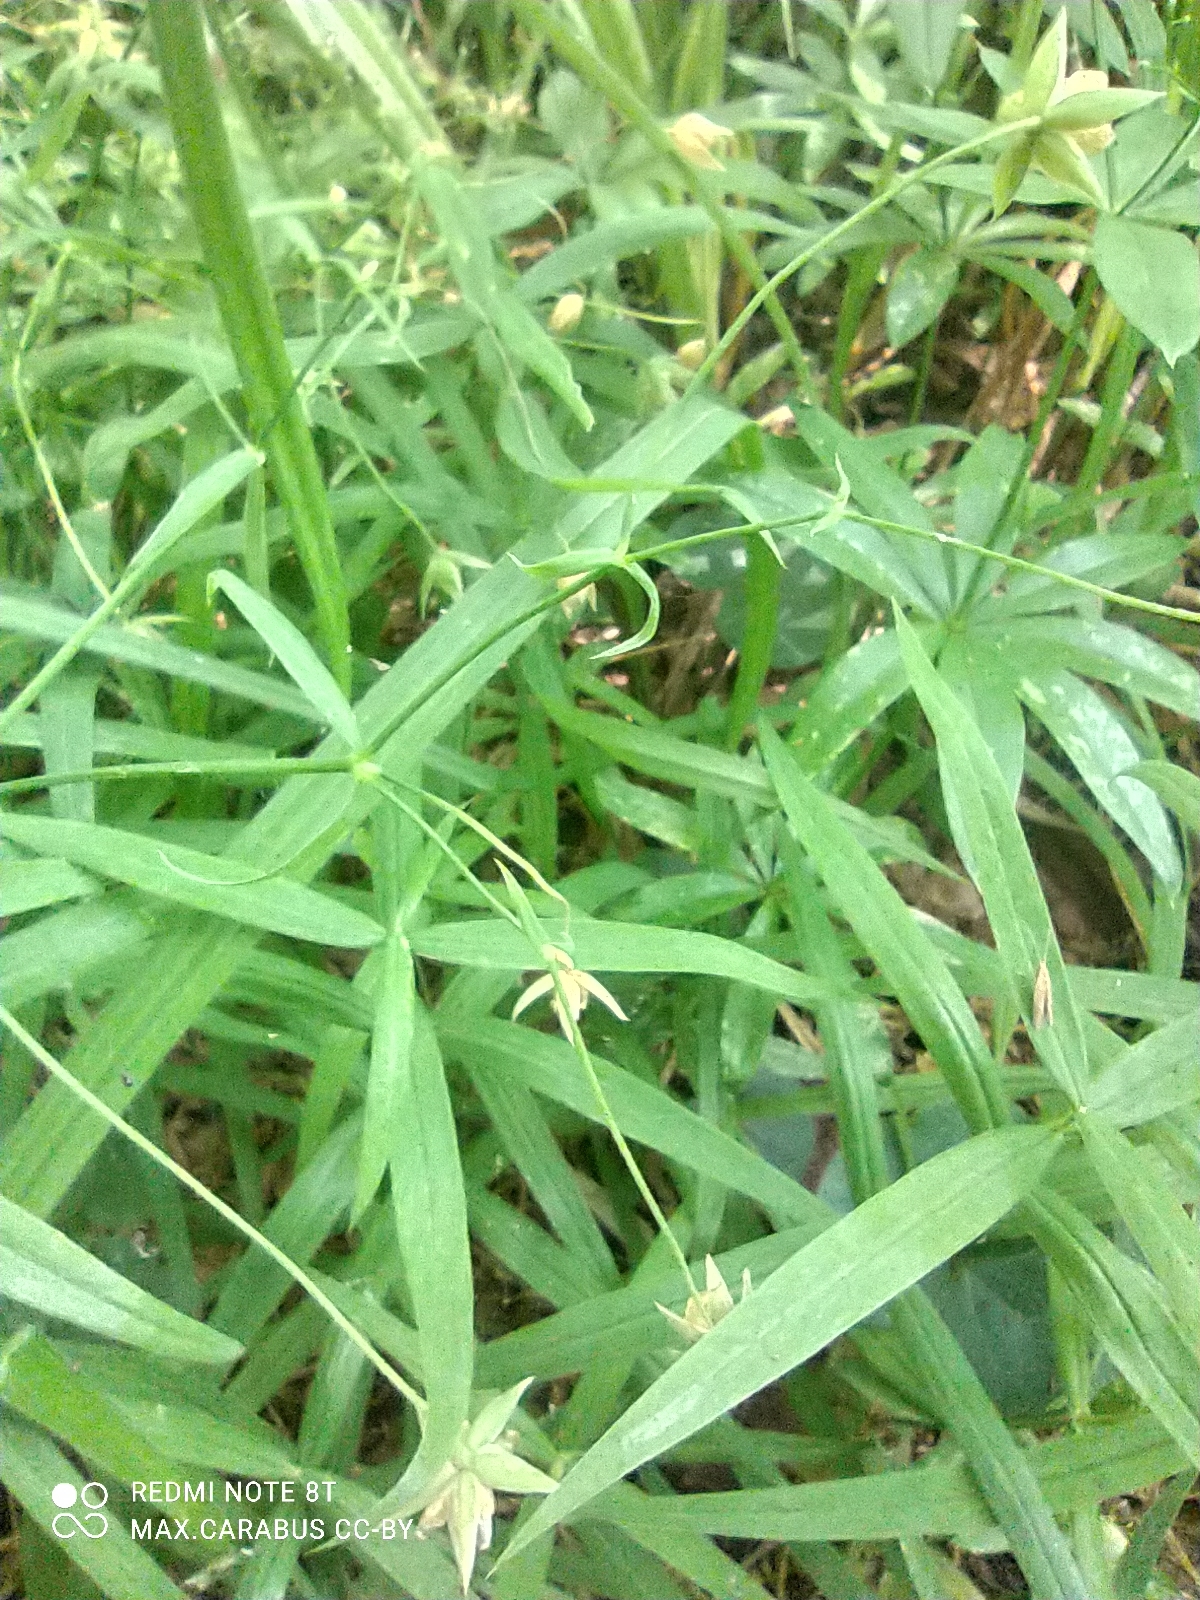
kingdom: Plantae
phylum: Tracheophyta
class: Magnoliopsida
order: Caryophyllales
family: Caryophyllaceae
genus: Rabelera
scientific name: Rabelera holostea
